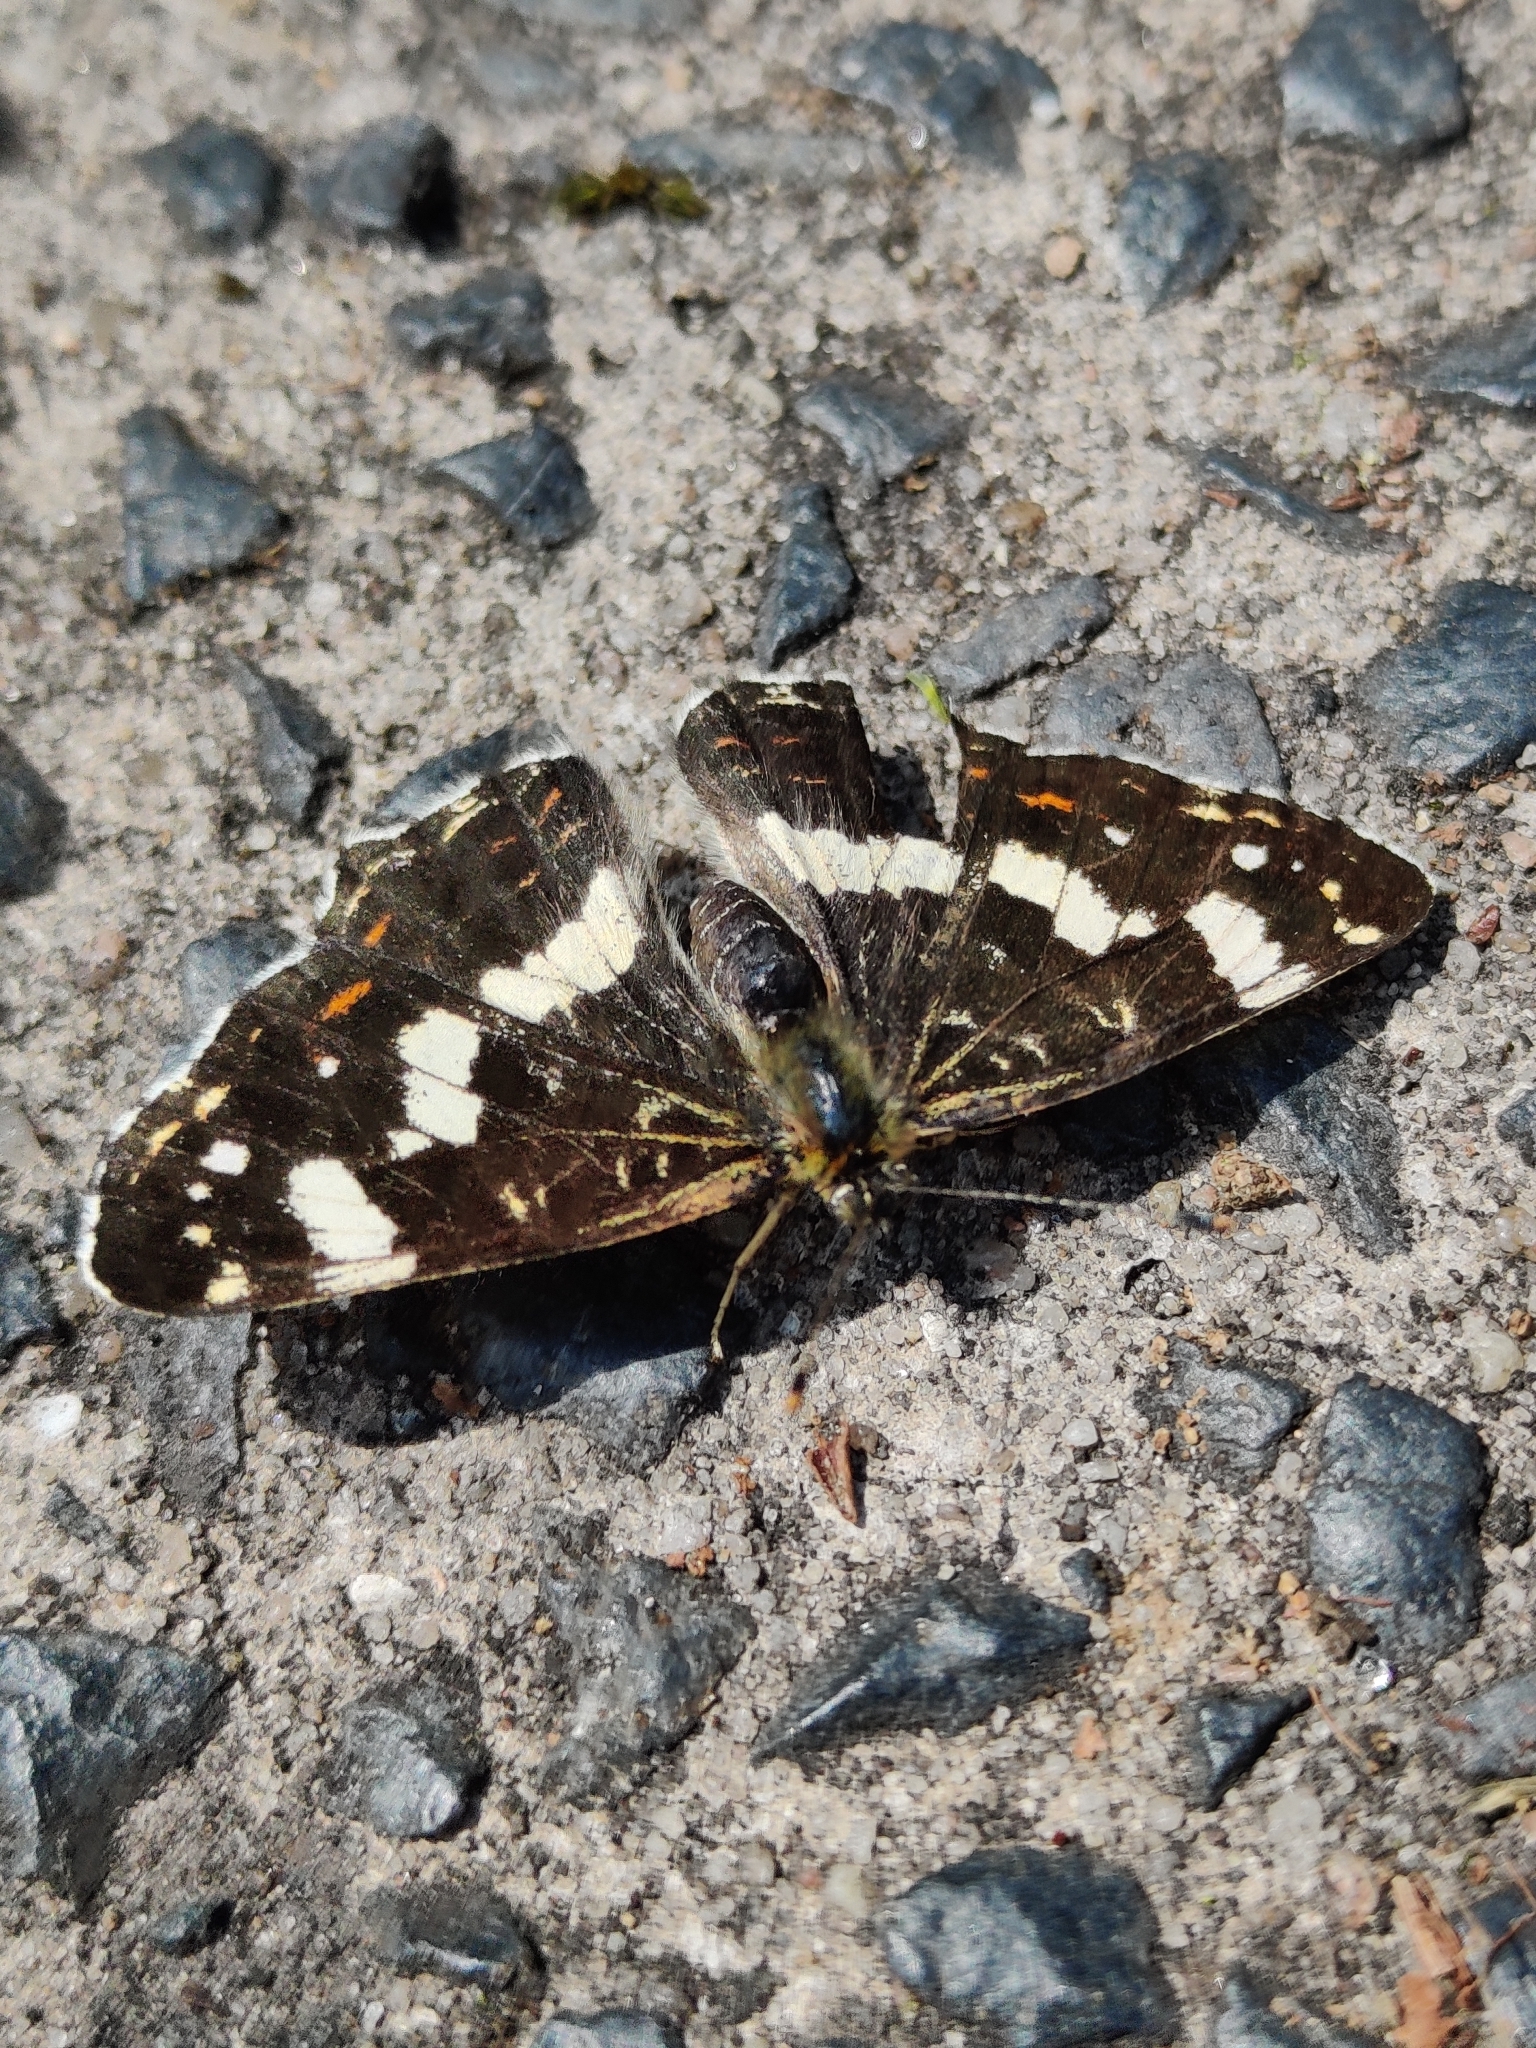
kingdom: Animalia
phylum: Arthropoda
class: Insecta
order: Lepidoptera
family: Nymphalidae
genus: Araschnia
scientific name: Araschnia levana
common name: Map butterfly
